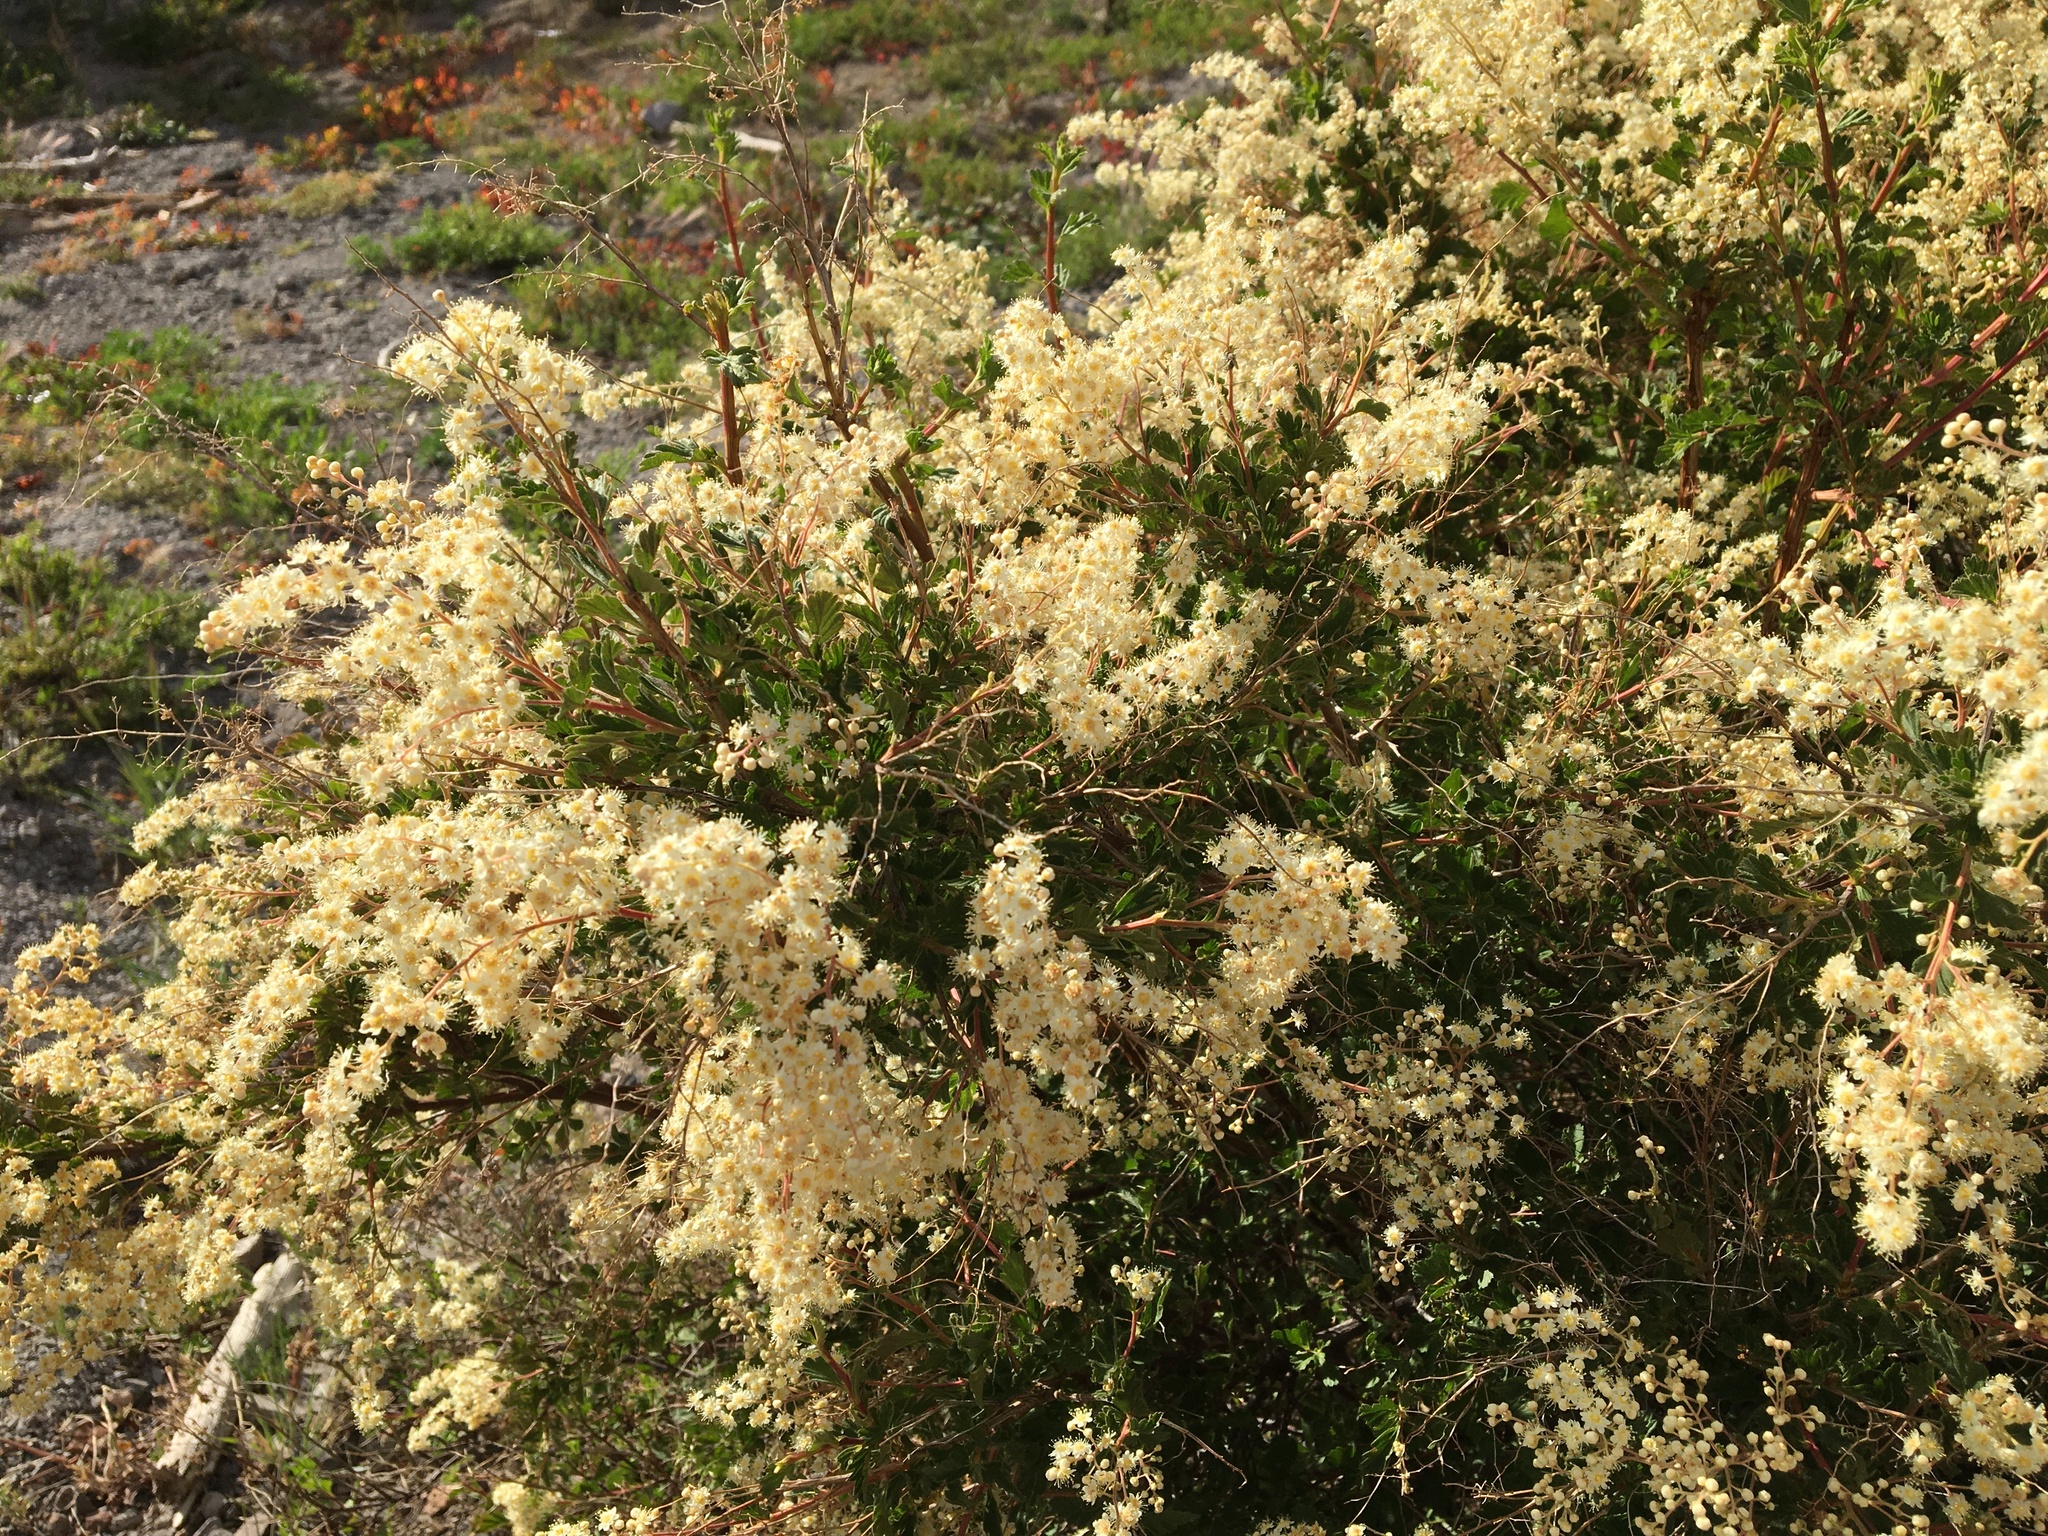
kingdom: Plantae
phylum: Tracheophyta
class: Magnoliopsida
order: Rosales
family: Rosaceae
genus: Holodiscus
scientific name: Holodiscus discolor
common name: Oceanspray
